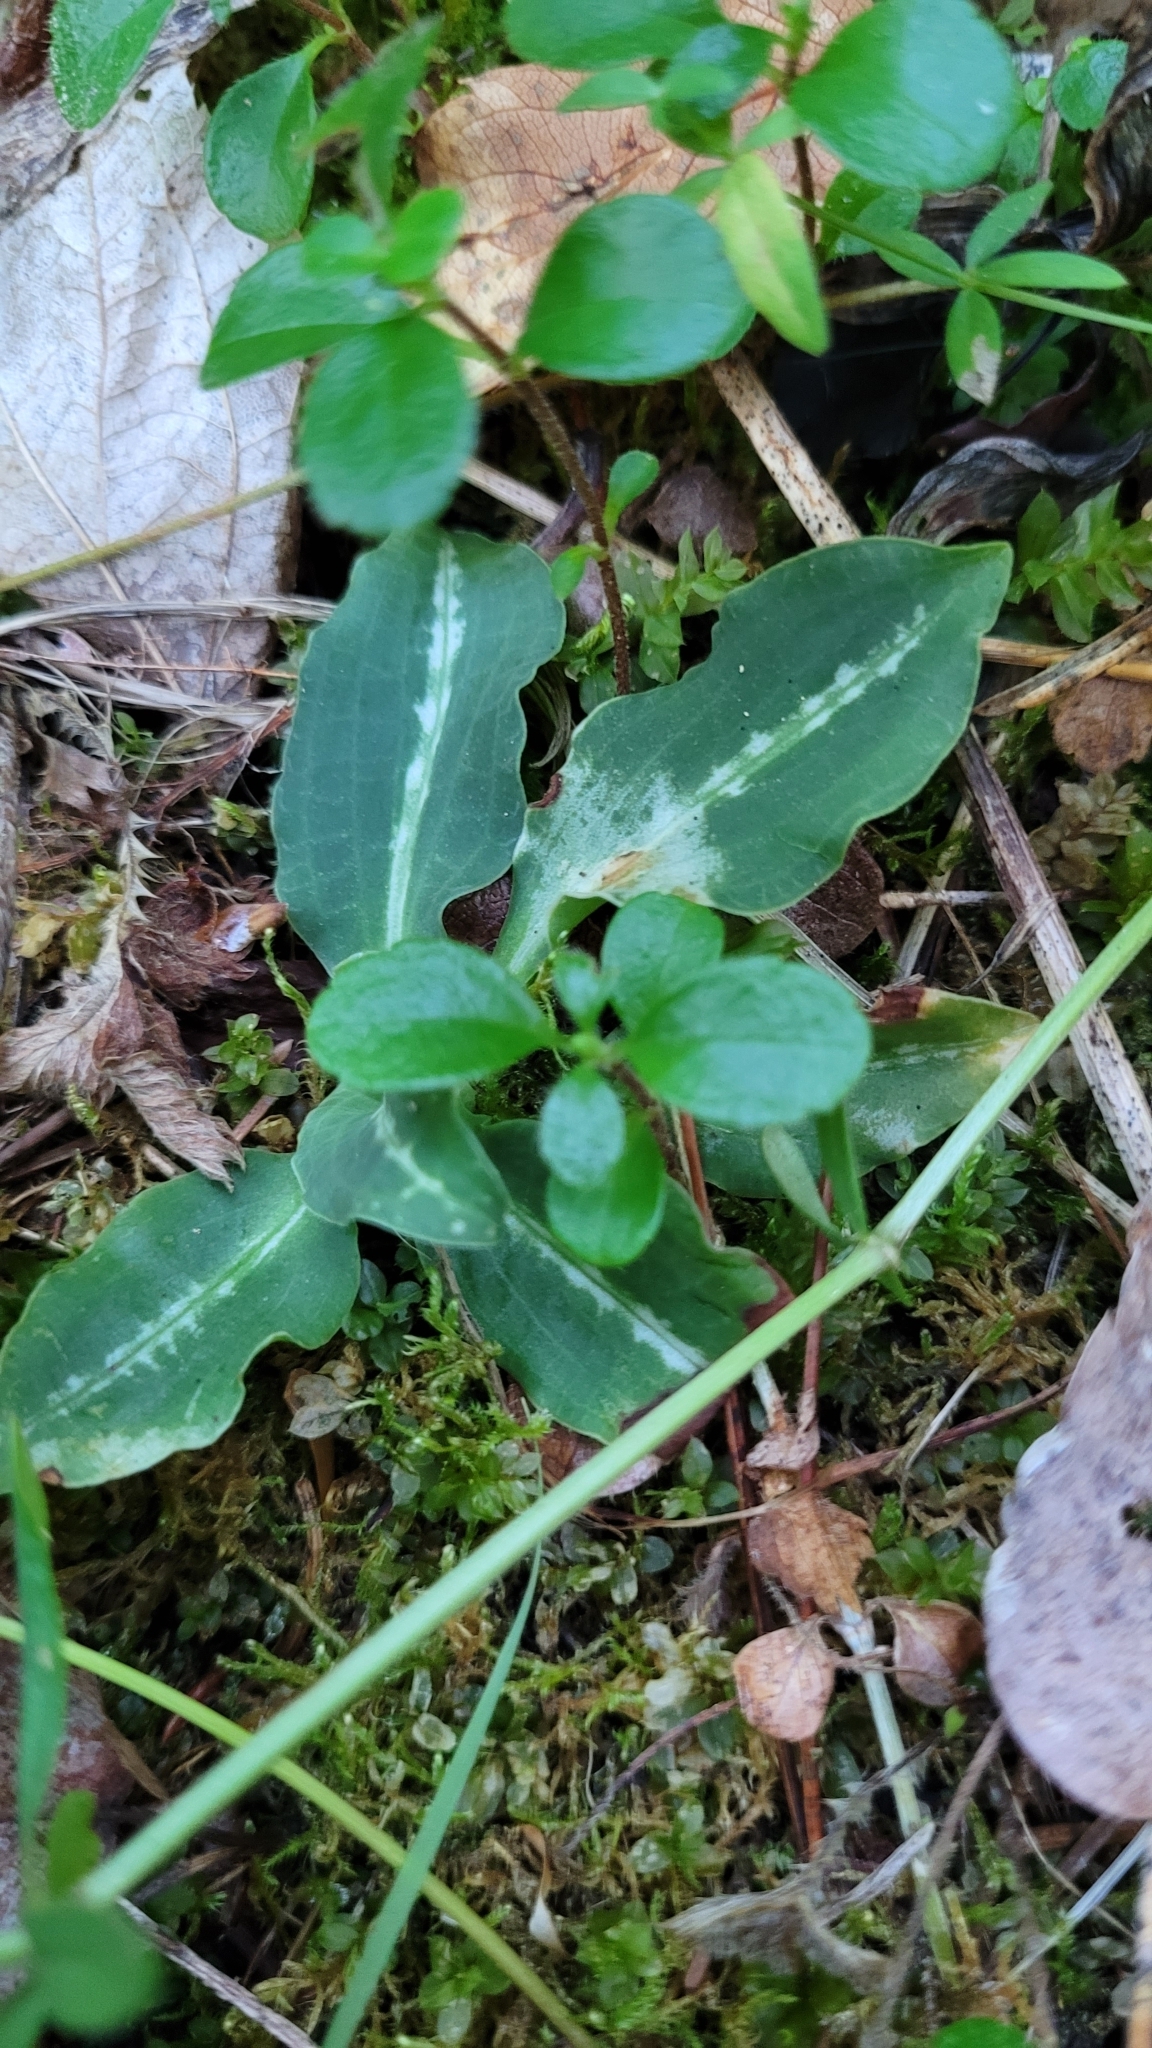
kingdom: Plantae
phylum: Tracheophyta
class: Liliopsida
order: Asparagales
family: Orchidaceae
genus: Goodyera
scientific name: Goodyera oblongifolia
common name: Giant rattlesnake-plantain
